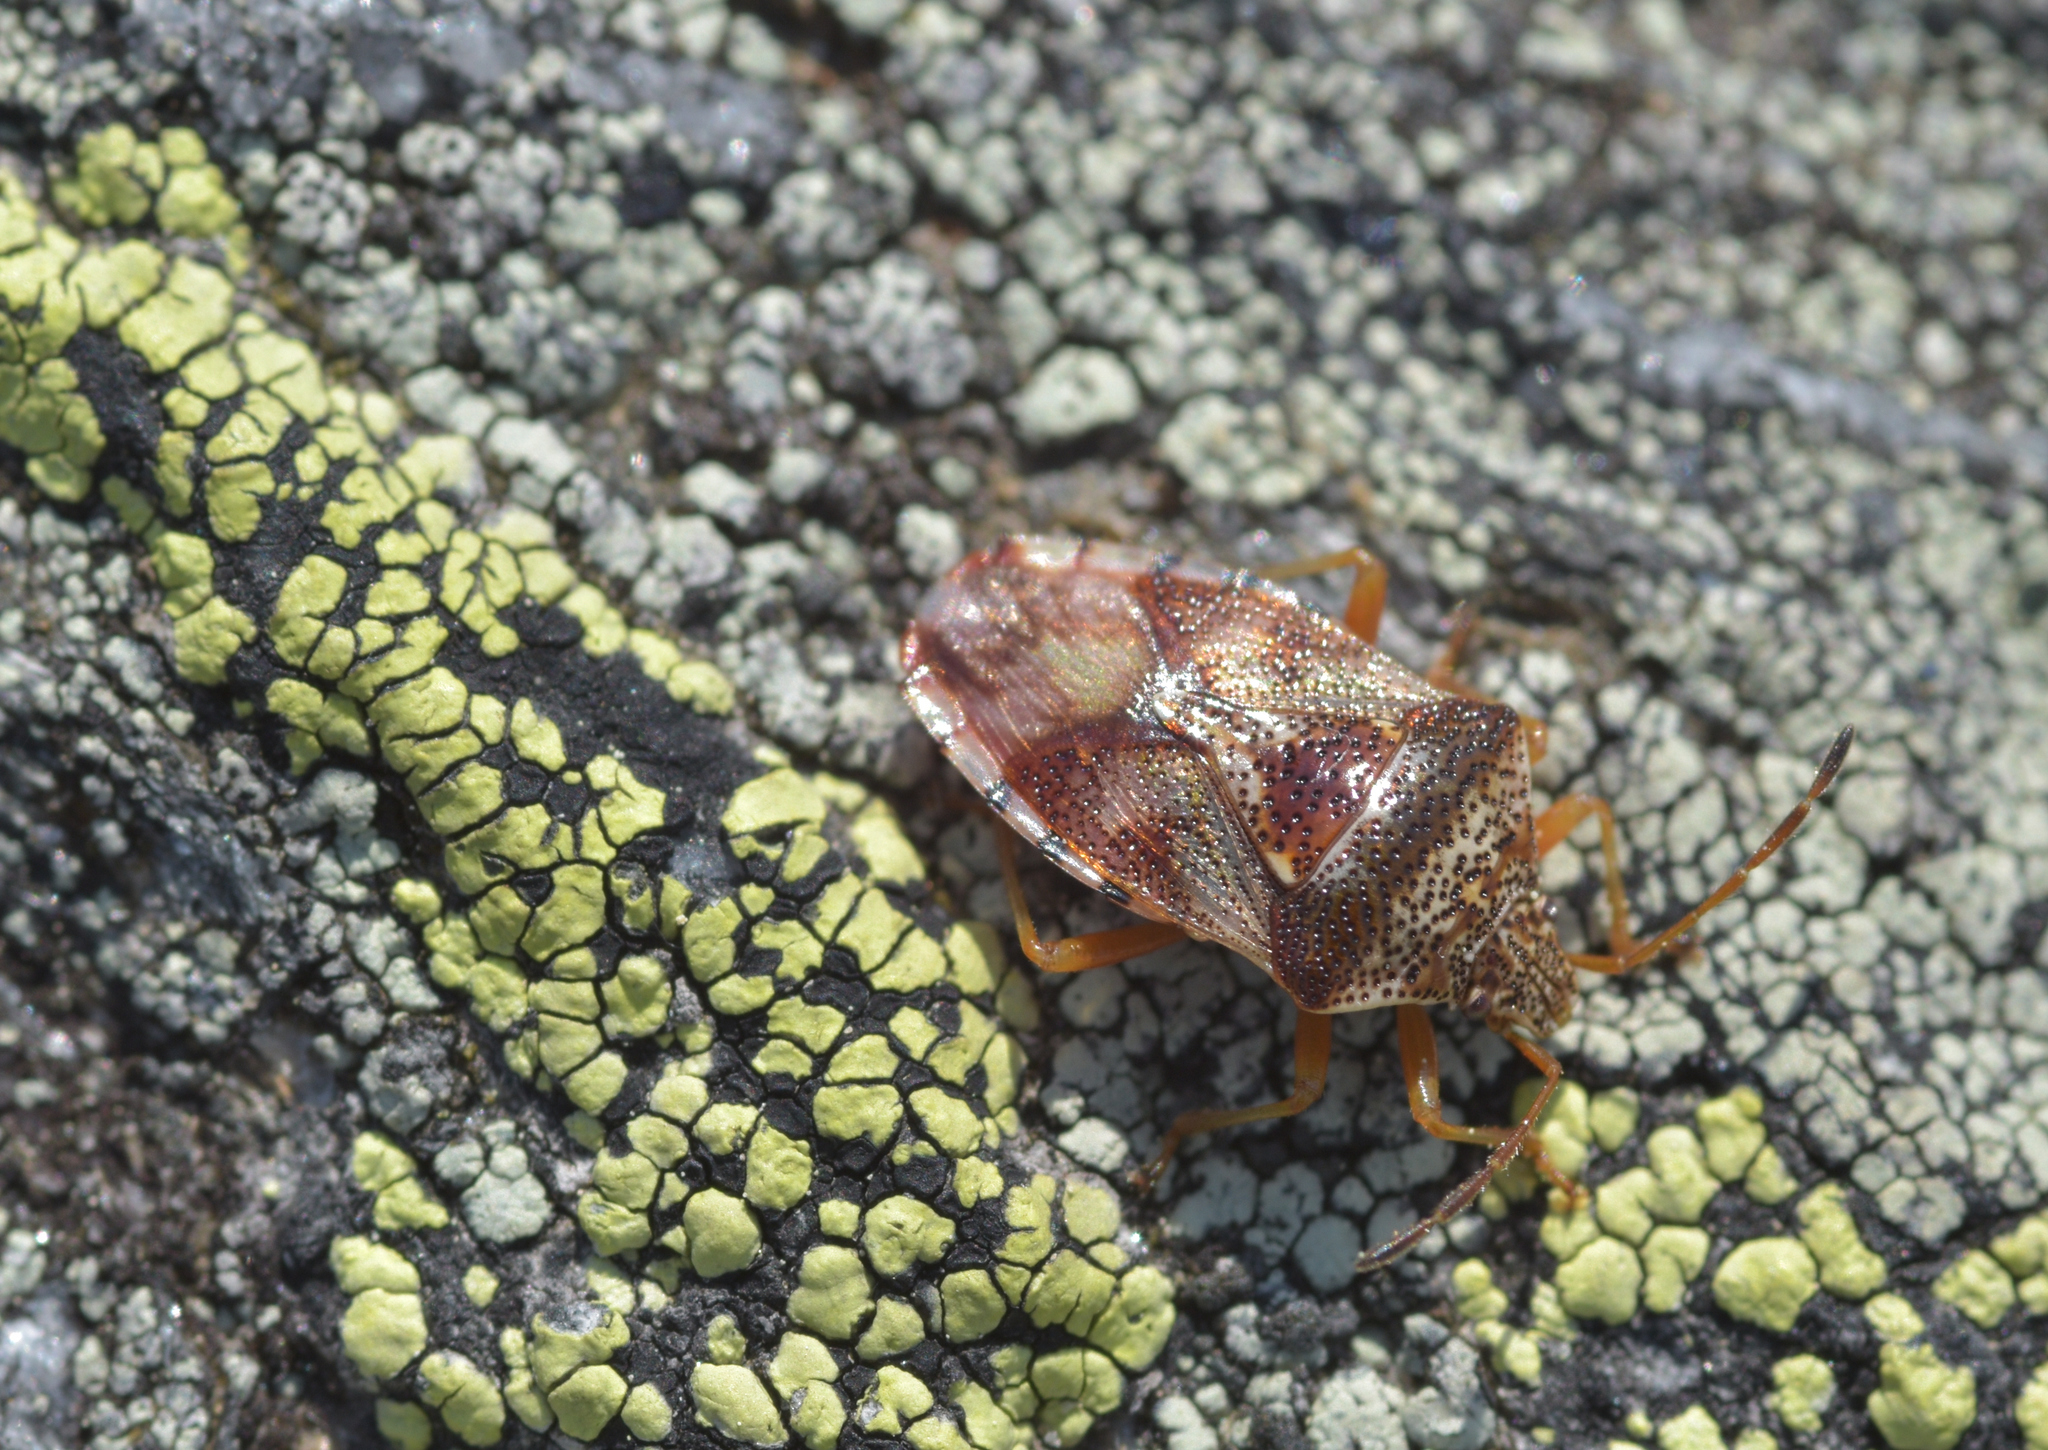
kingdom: Animalia
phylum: Arthropoda
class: Insecta
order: Hemiptera
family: Acanthosomatidae
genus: Elasmucha
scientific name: Elasmucha lateralis
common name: Shield bug
